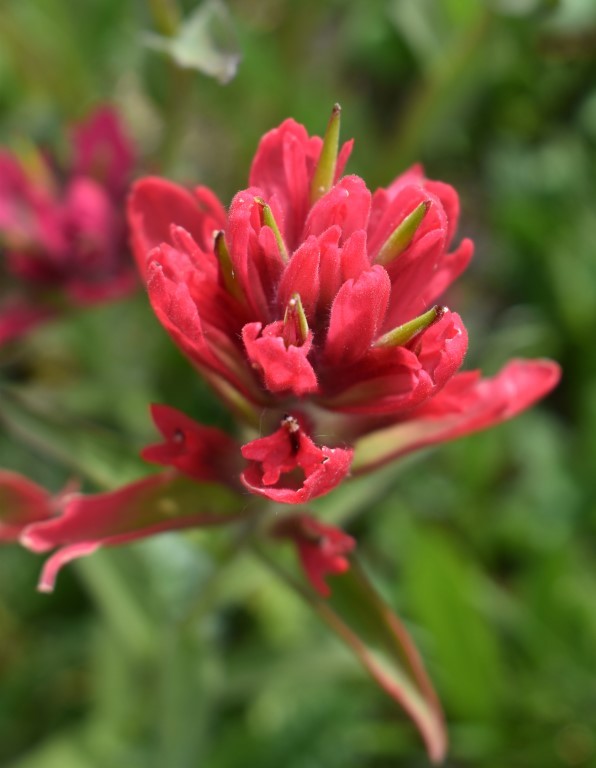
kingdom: Plantae
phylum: Tracheophyta
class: Magnoliopsida
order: Lamiales
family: Orobanchaceae
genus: Castilleja
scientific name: Castilleja rhexifolia
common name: Rocky mountain paintbrush
